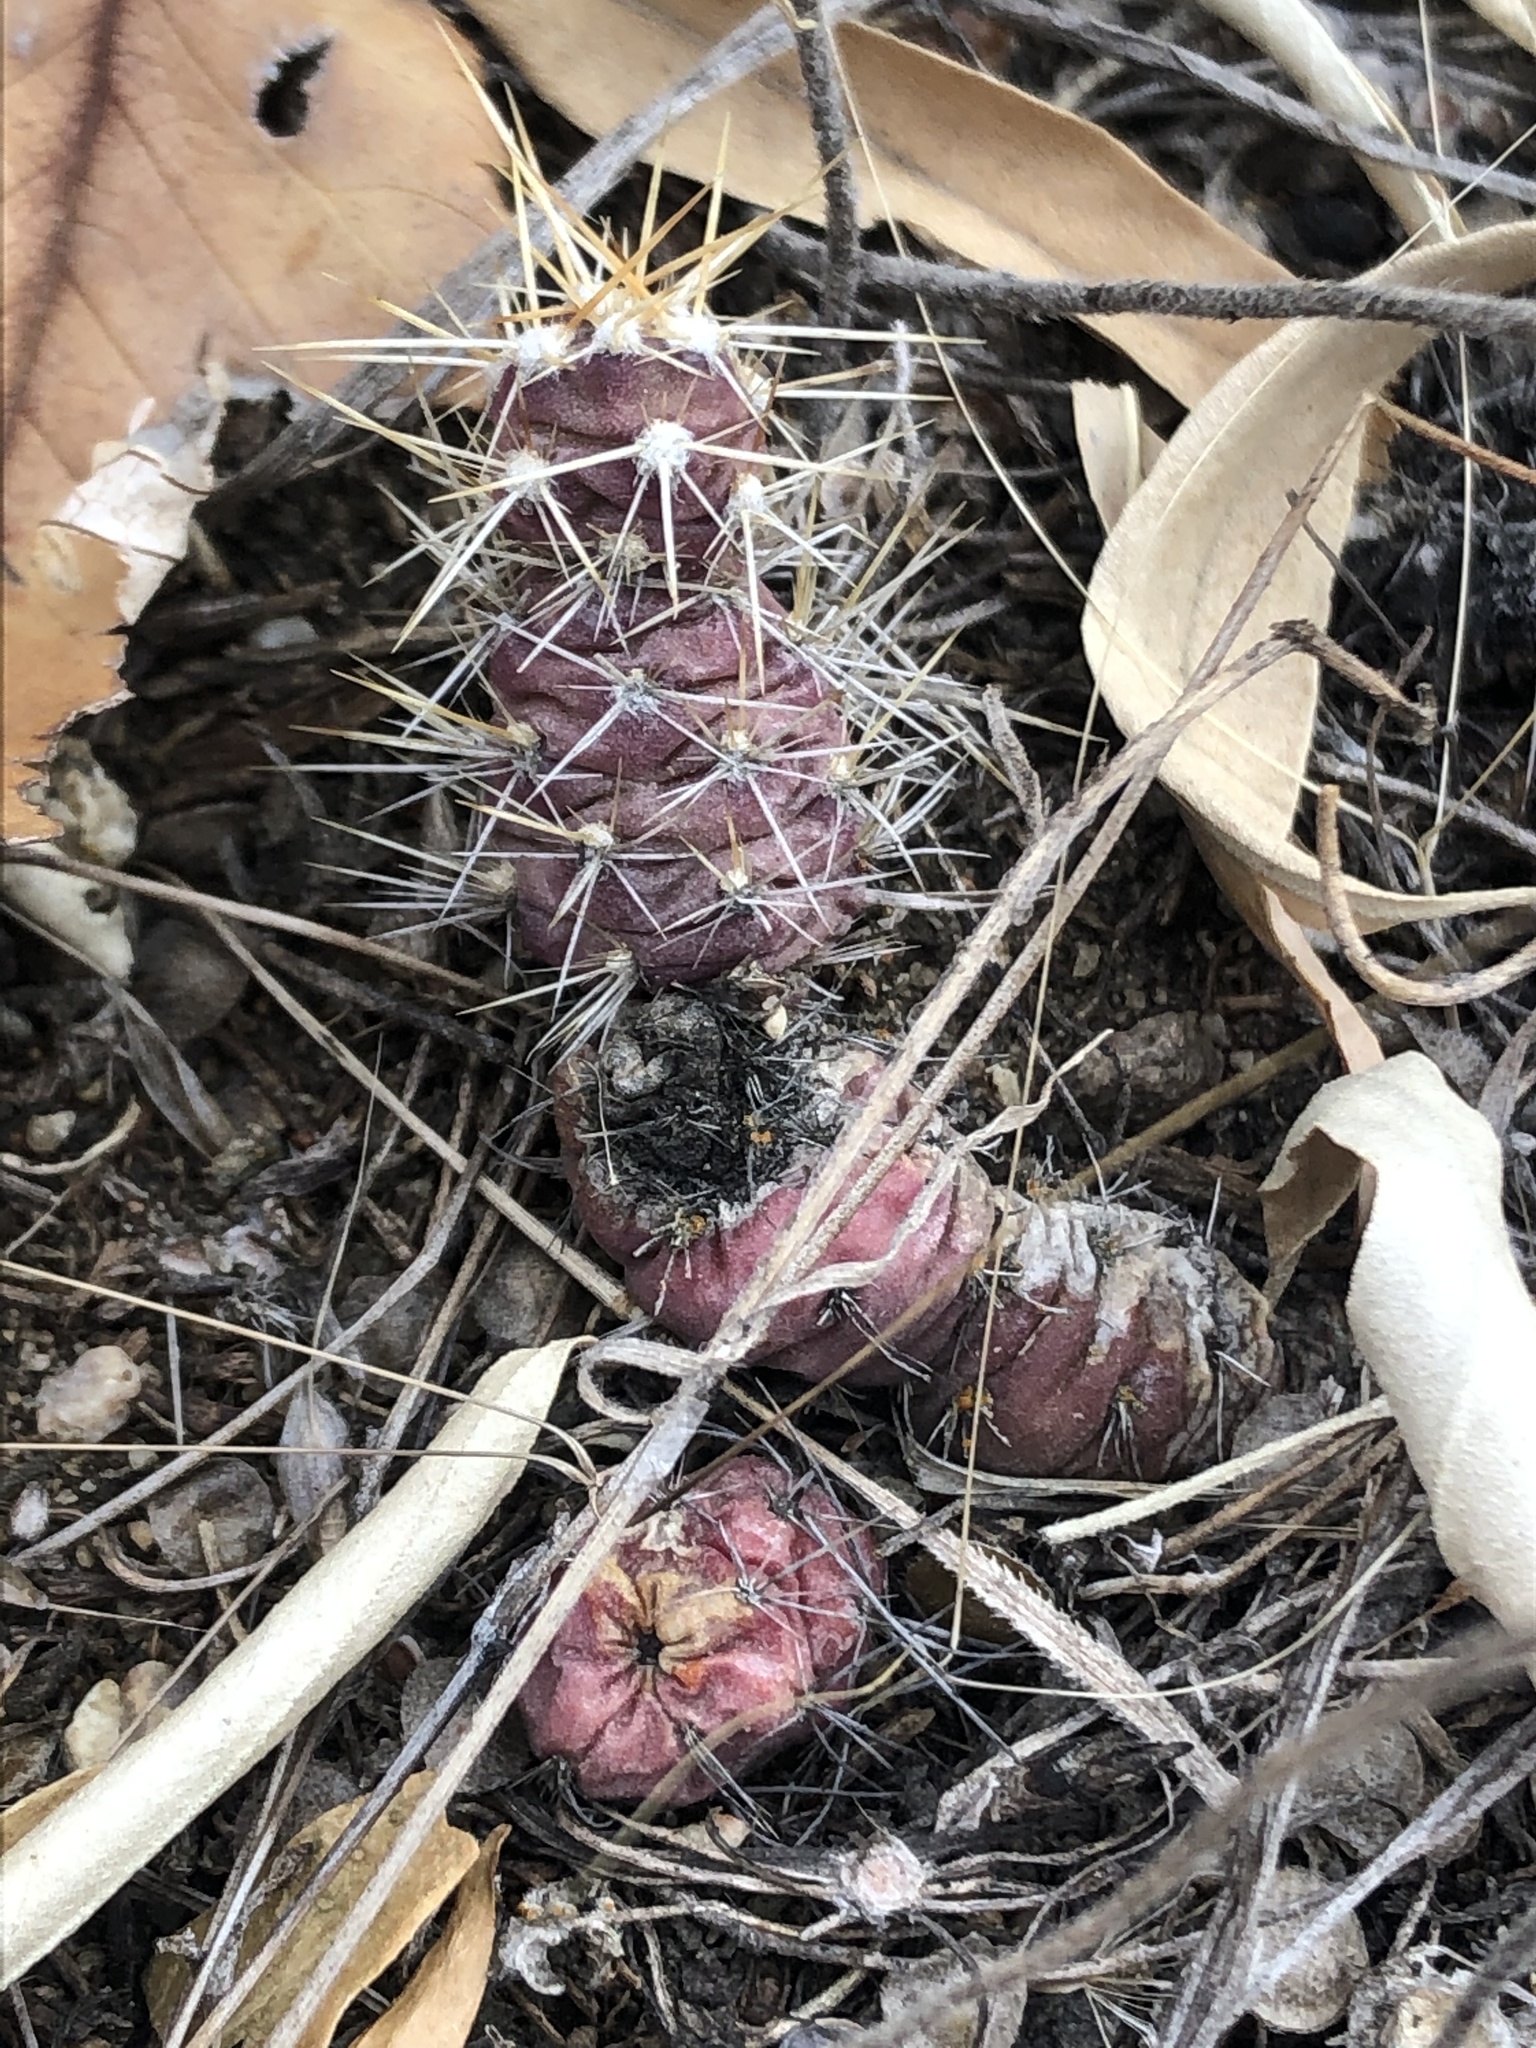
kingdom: Plantae
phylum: Tracheophyta
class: Magnoliopsida
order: Caryophyllales
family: Cactaceae
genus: Opuntia
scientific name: Opuntia fragilis
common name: Brittle cactus
